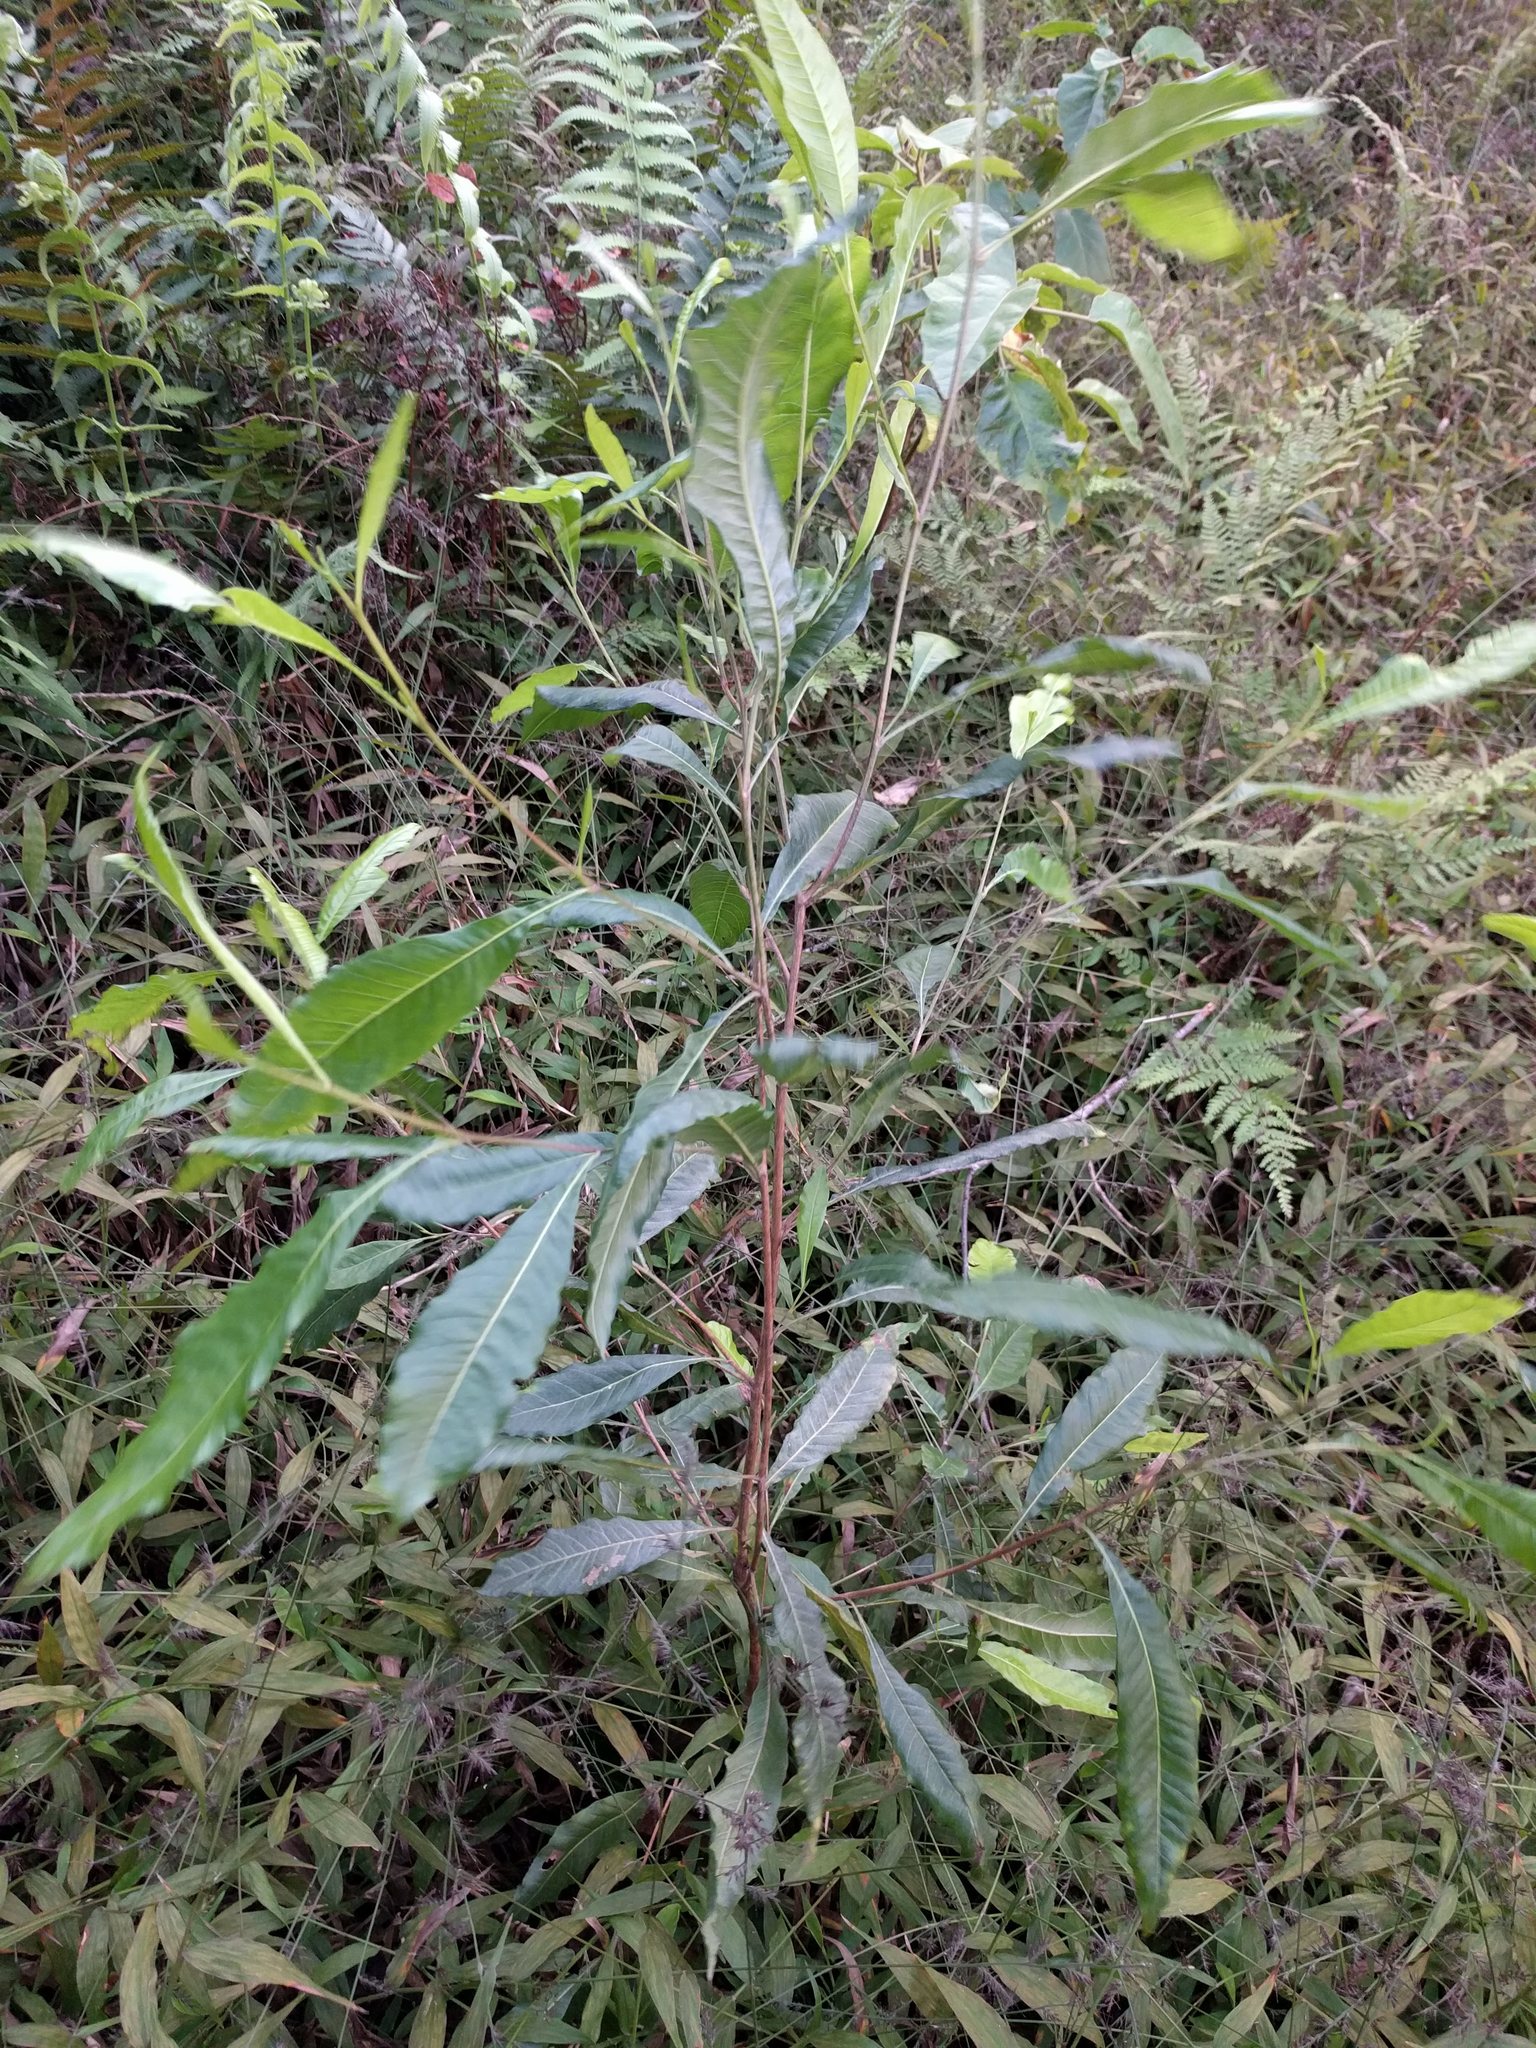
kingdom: Plantae
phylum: Tracheophyta
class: Magnoliopsida
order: Sapindales
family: Sapindaceae
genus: Dodonaea
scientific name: Dodonaea viscosa
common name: Hopbush
